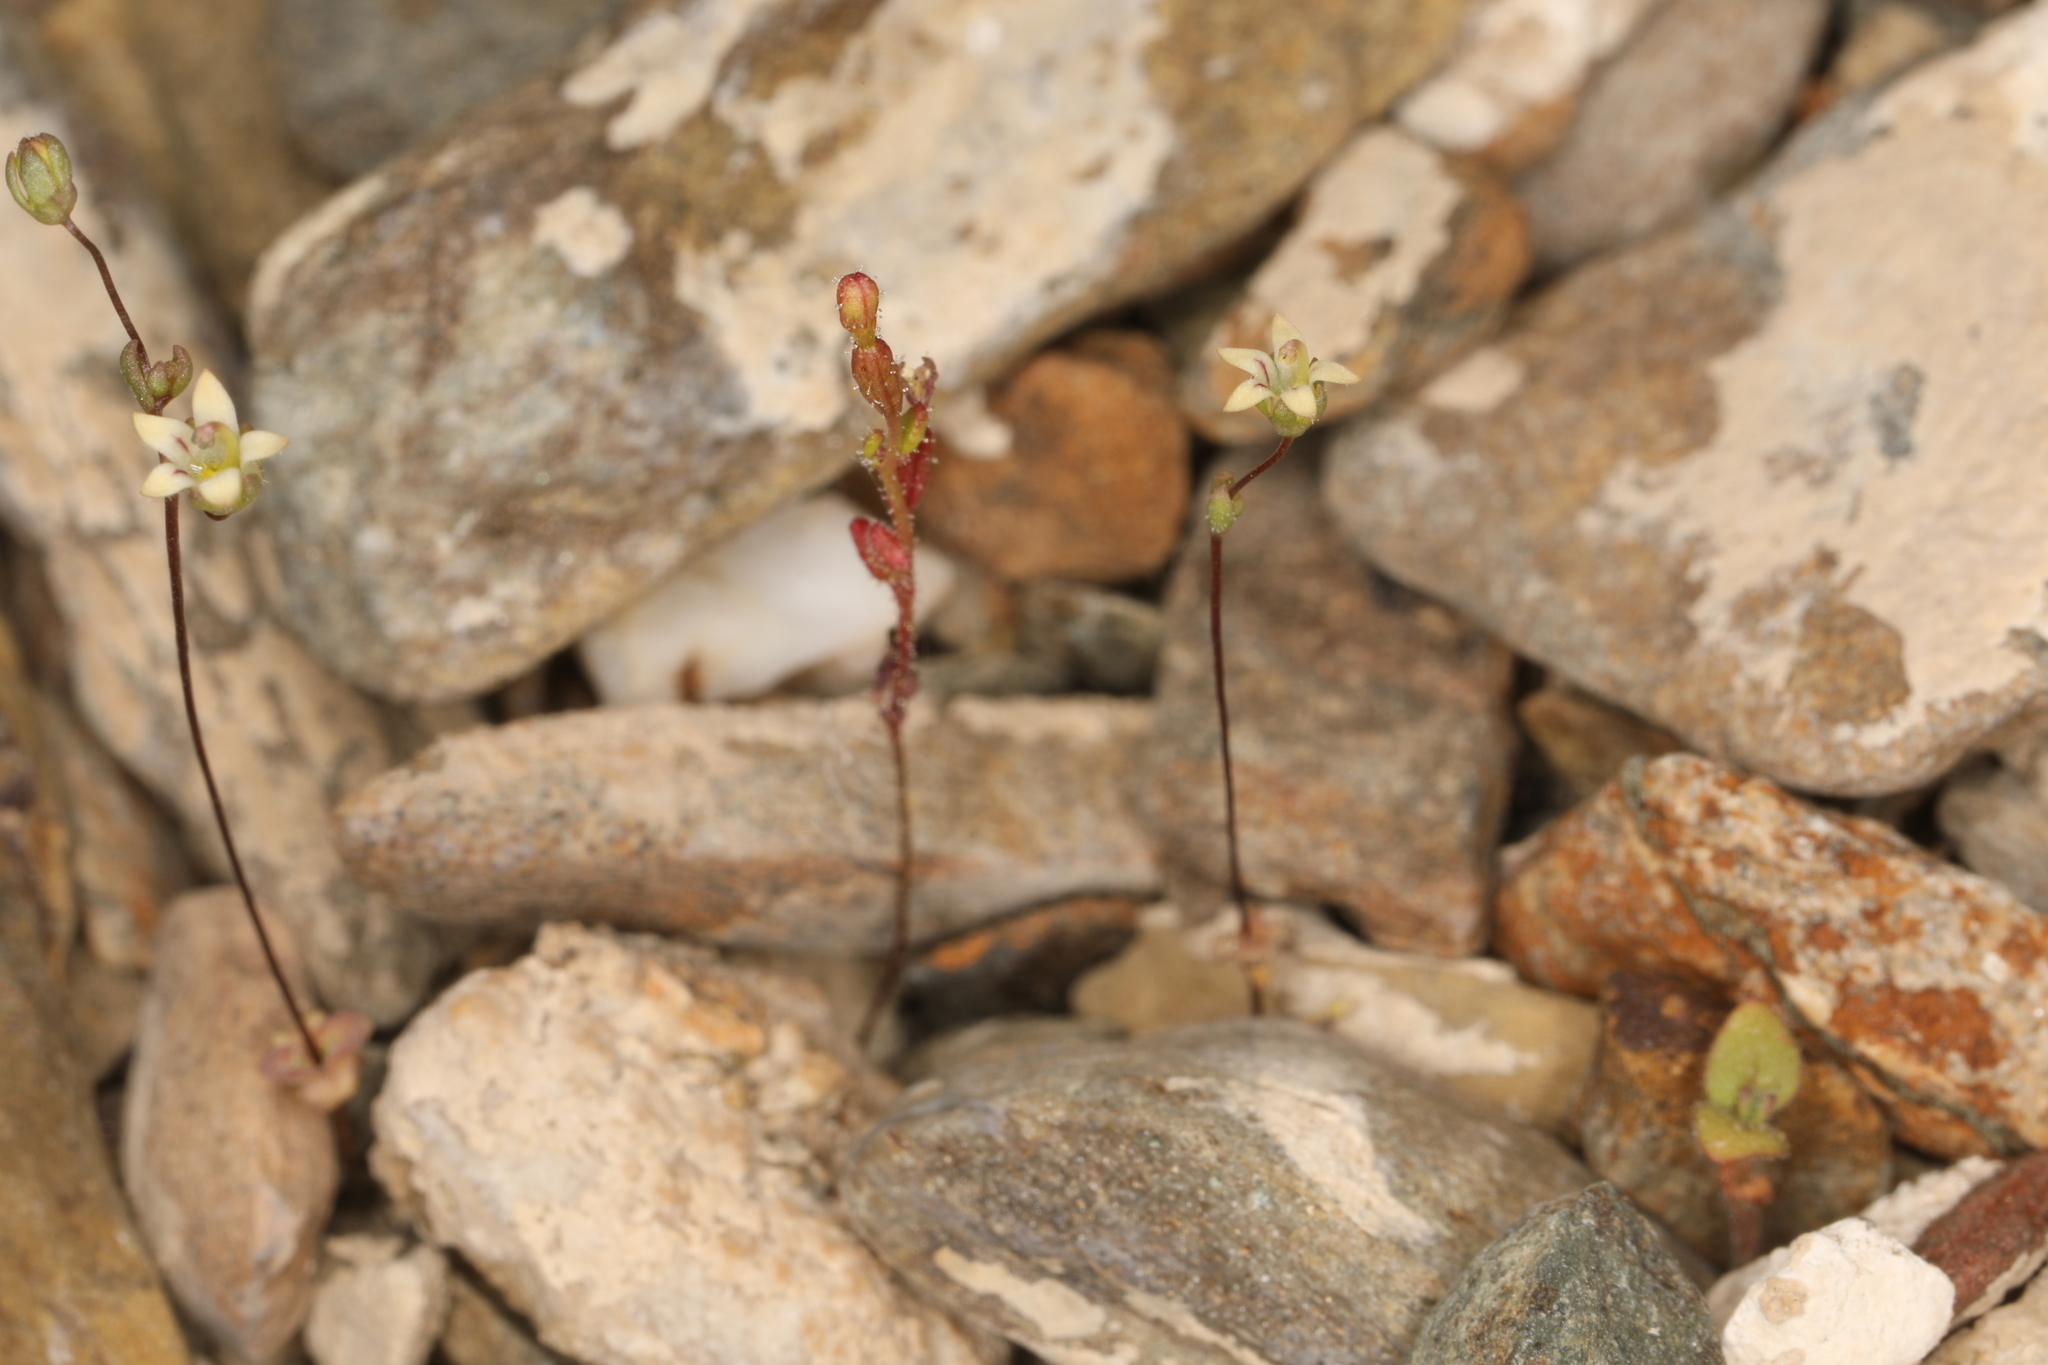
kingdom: Plantae
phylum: Tracheophyta
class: Magnoliopsida
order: Asterales
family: Campanulaceae
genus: Nemacladus
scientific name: Nemacladus inyoensis
